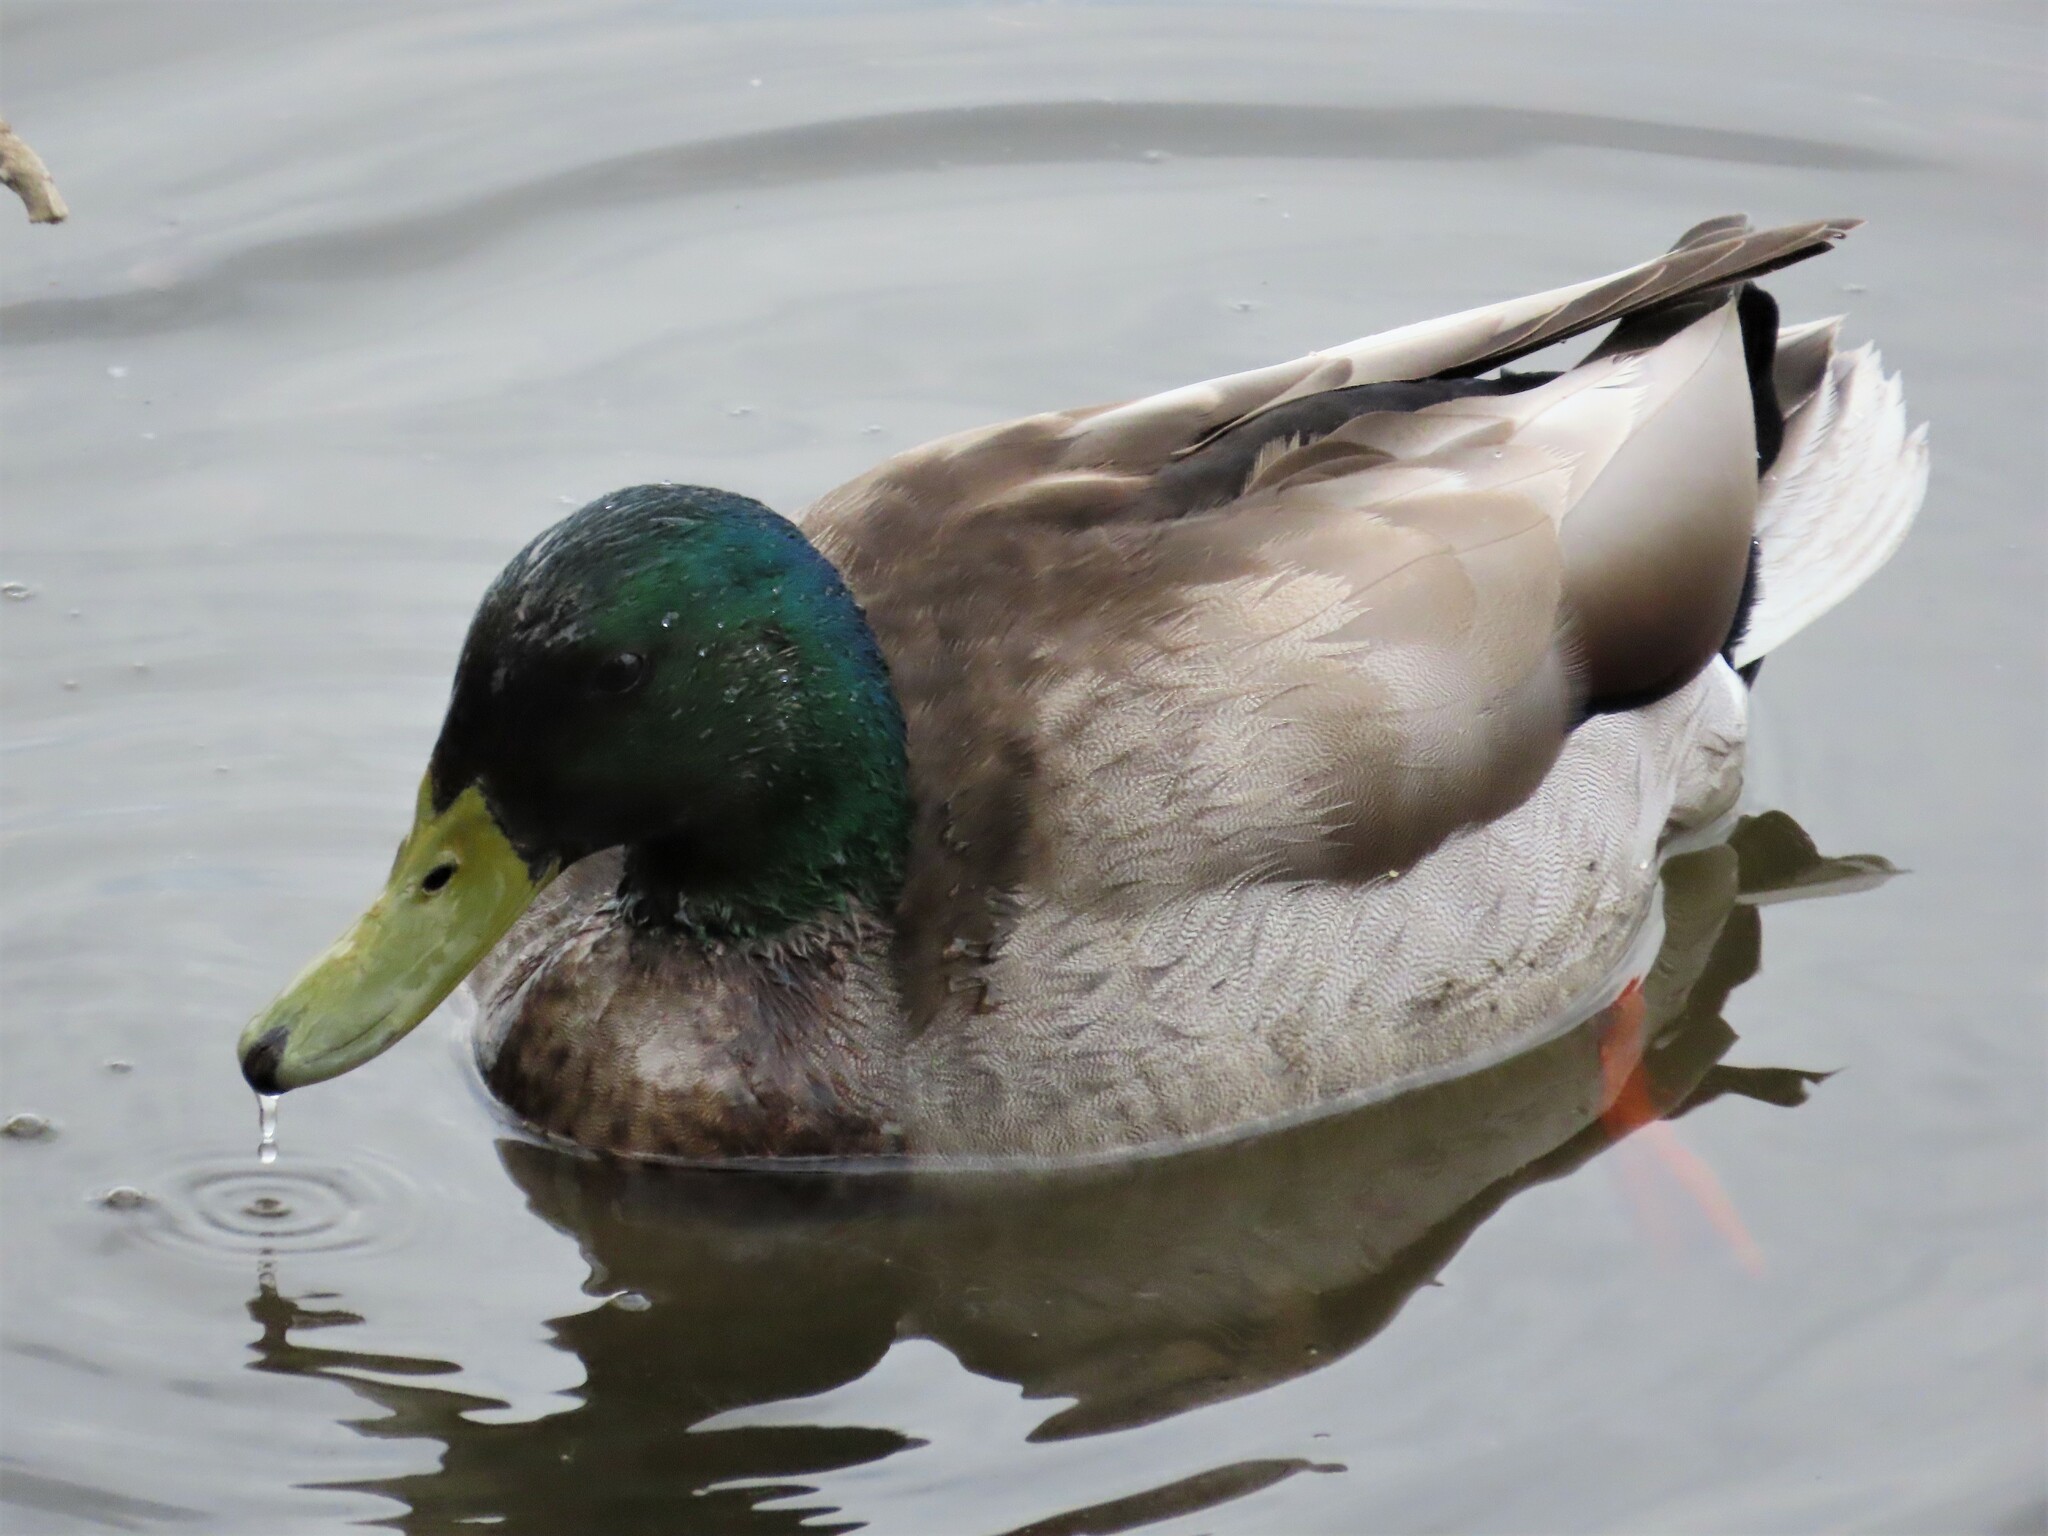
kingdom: Animalia
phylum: Chordata
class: Aves
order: Anseriformes
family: Anatidae
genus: Anas
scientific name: Anas platyrhynchos
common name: Mallard
